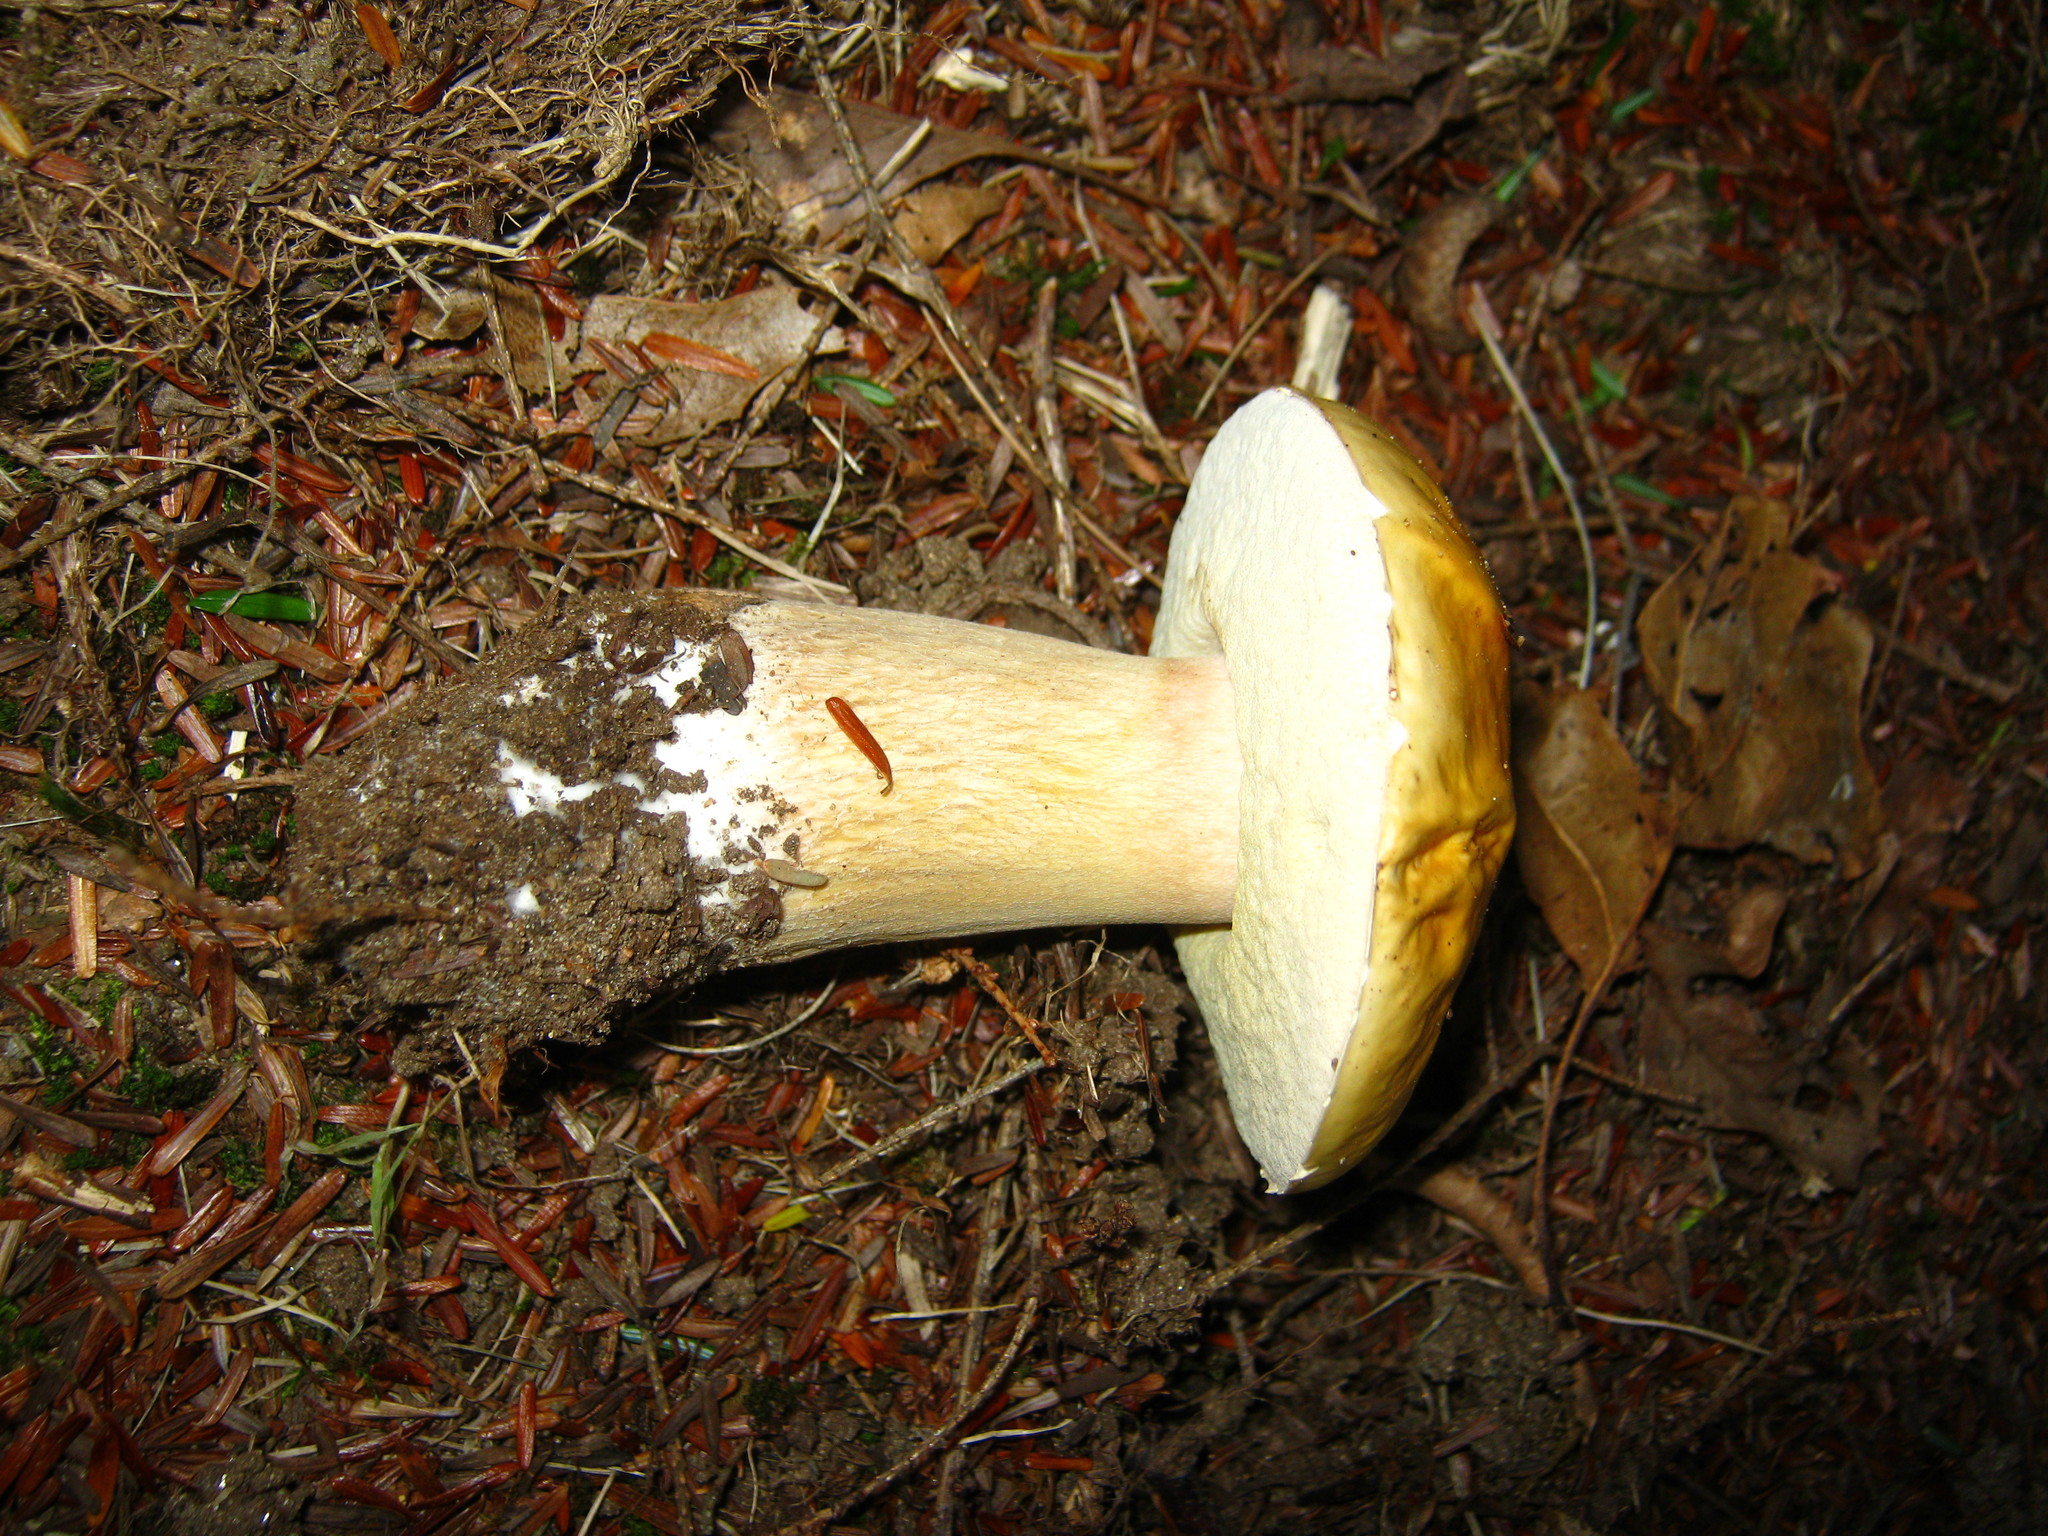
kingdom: Fungi
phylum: Basidiomycota
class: Agaricomycetes
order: Boletales
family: Boletaceae
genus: Boletus
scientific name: Boletus chippewaensis
